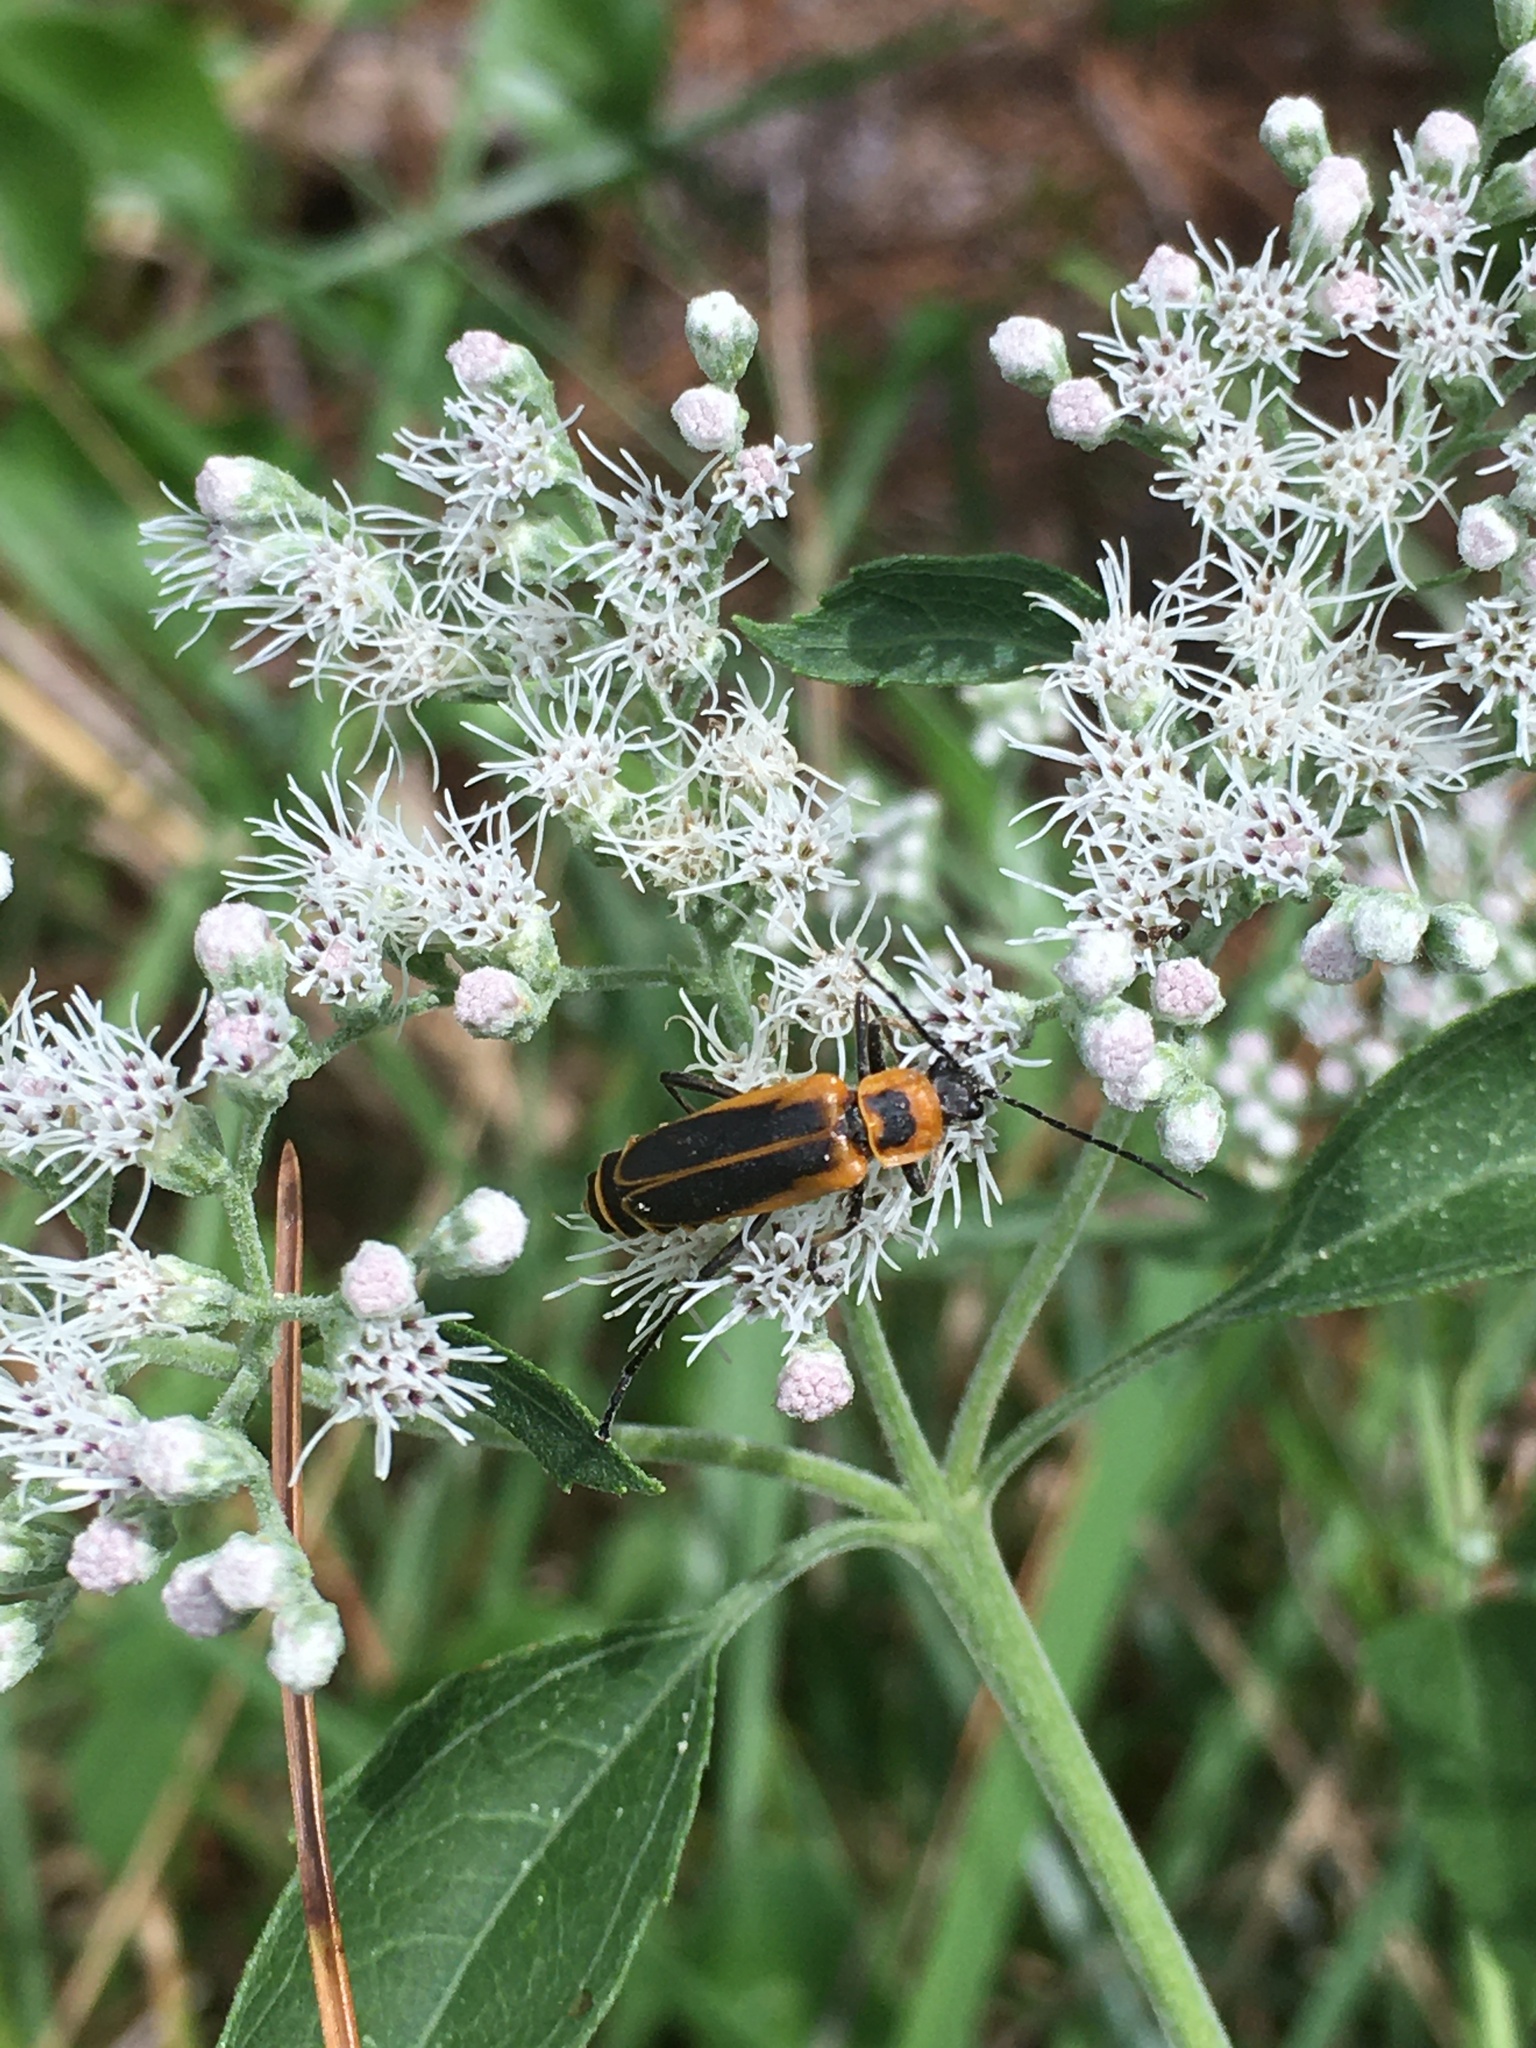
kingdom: Animalia
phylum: Arthropoda
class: Insecta
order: Coleoptera
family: Cantharidae
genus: Chauliognathus
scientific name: Chauliognathus pensylvanicus
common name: Goldenrod soldier beetle
